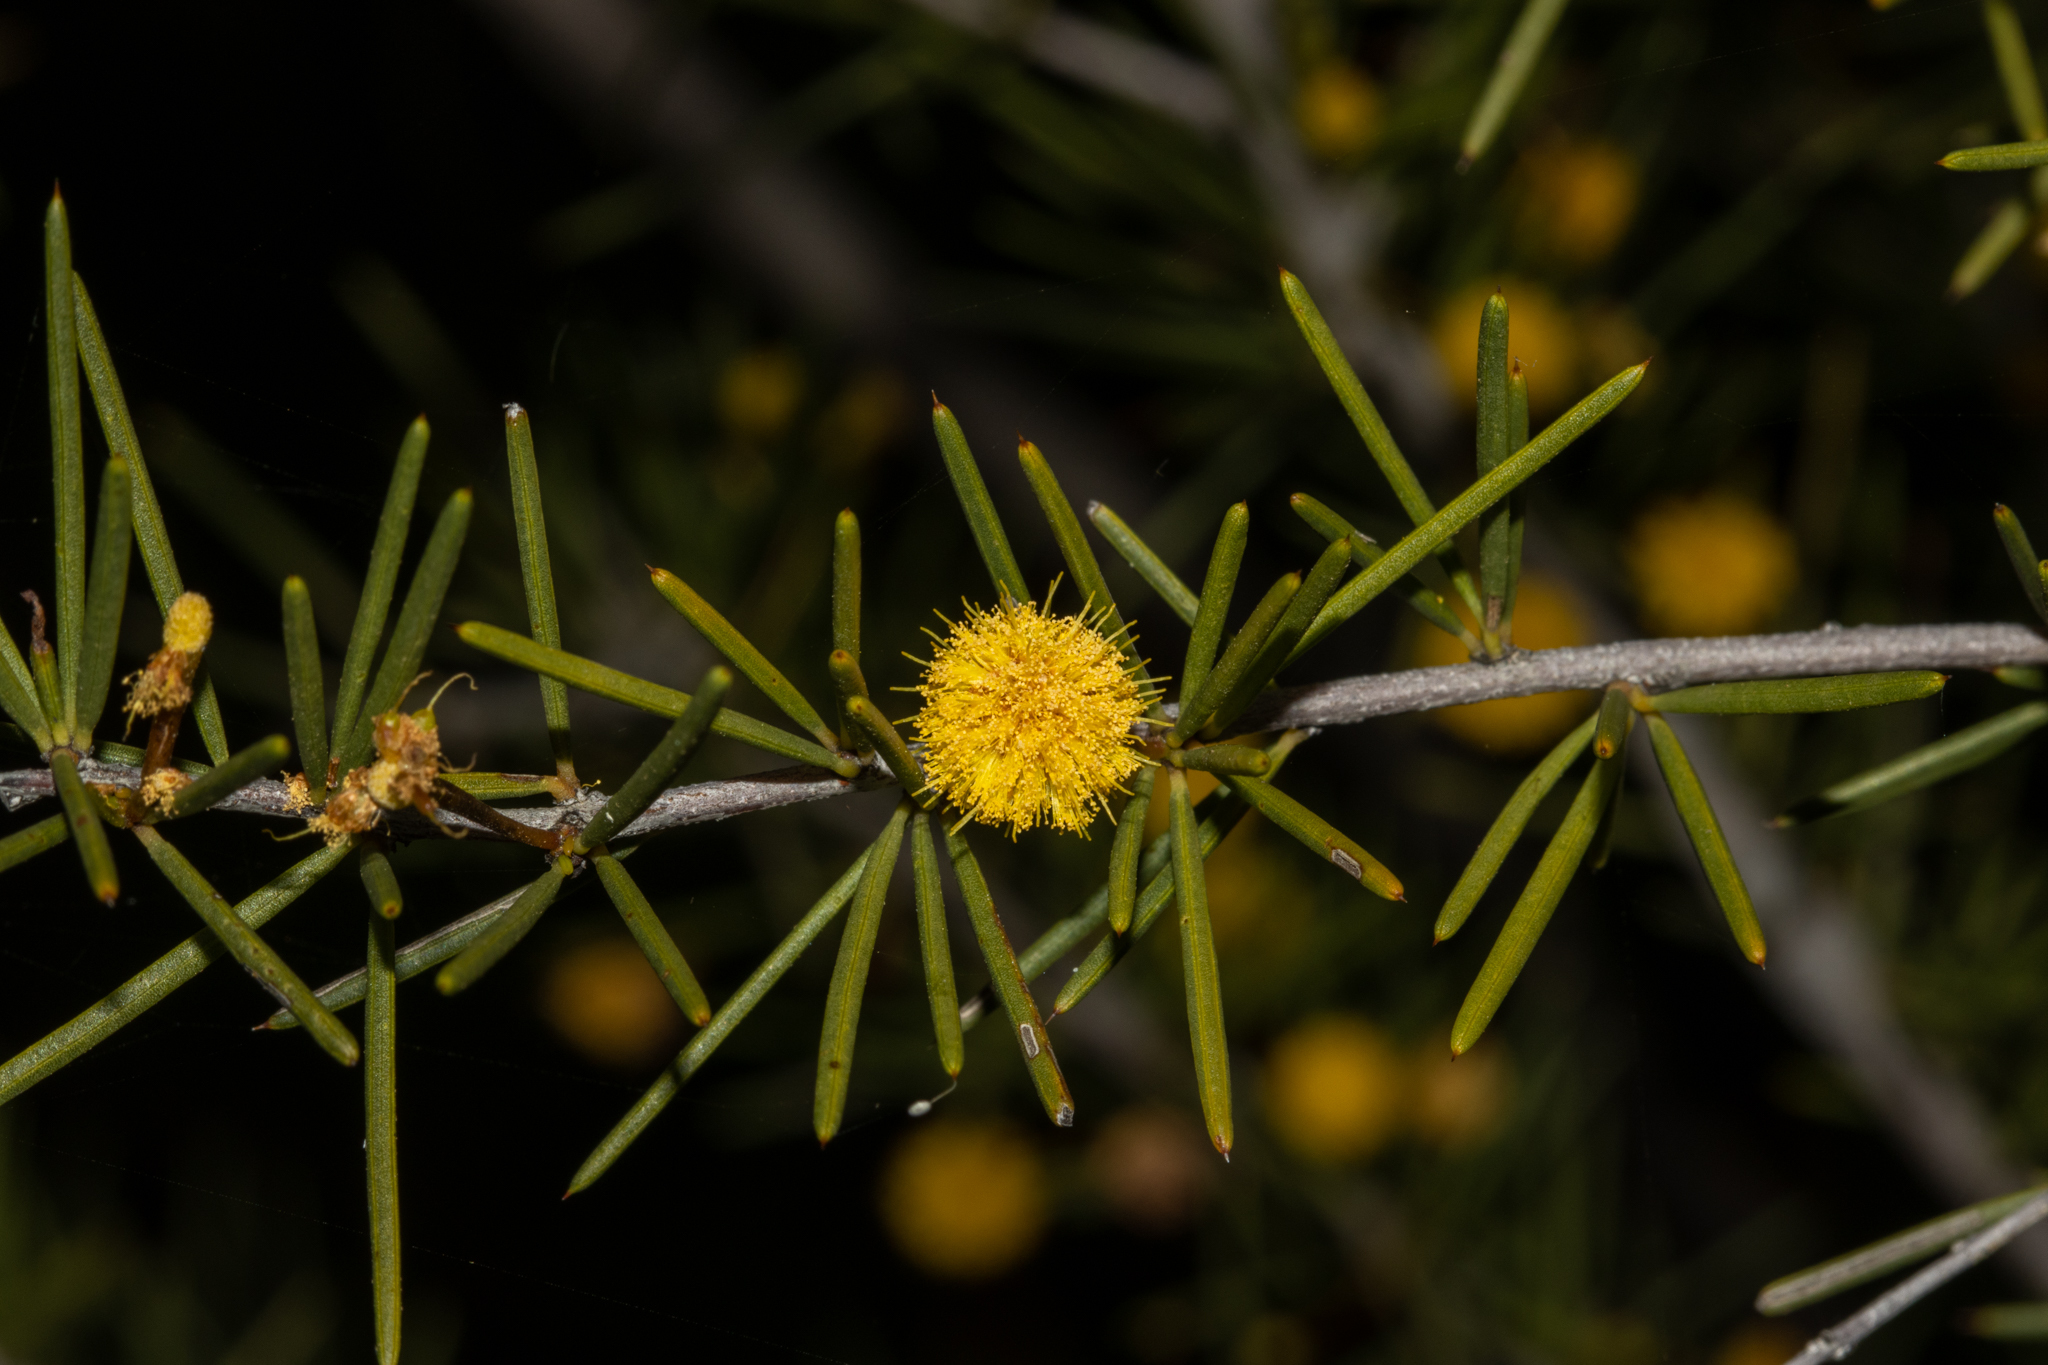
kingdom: Plantae
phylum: Tracheophyta
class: Magnoliopsida
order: Fabales
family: Fabaceae
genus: Acacia
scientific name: Acacia tetragonophylla
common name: Dead finish
